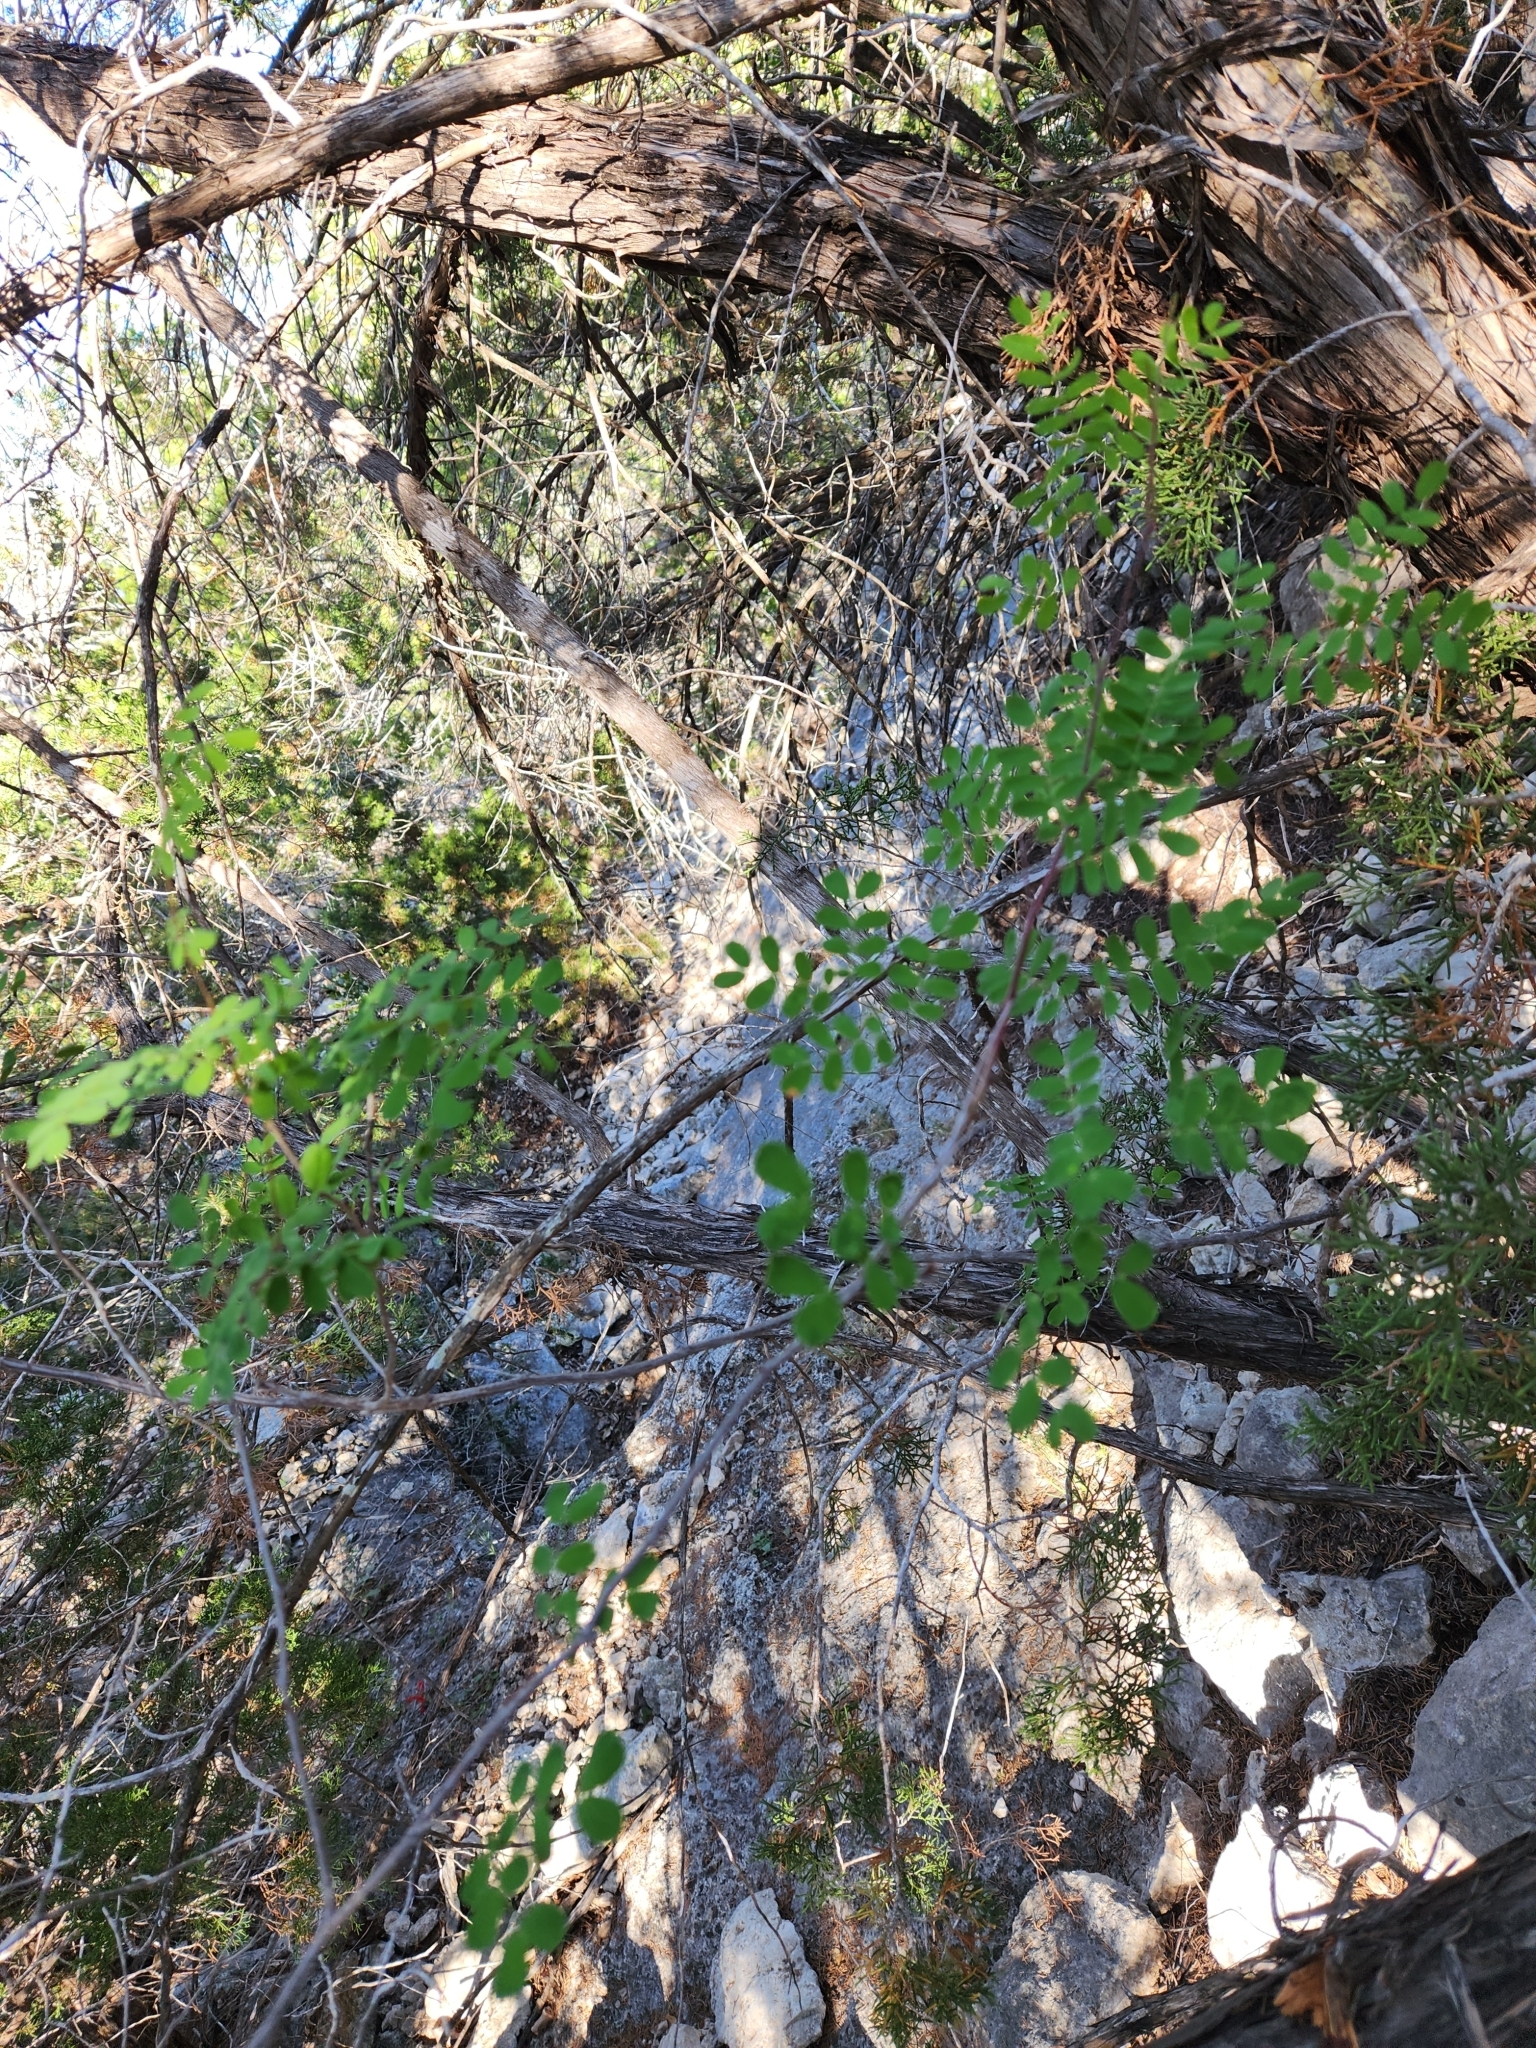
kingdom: Plantae
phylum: Tracheophyta
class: Magnoliopsida
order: Fabales
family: Fabaceae
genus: Senegalia
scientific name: Senegalia roemeriana
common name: Roemer's acacia
